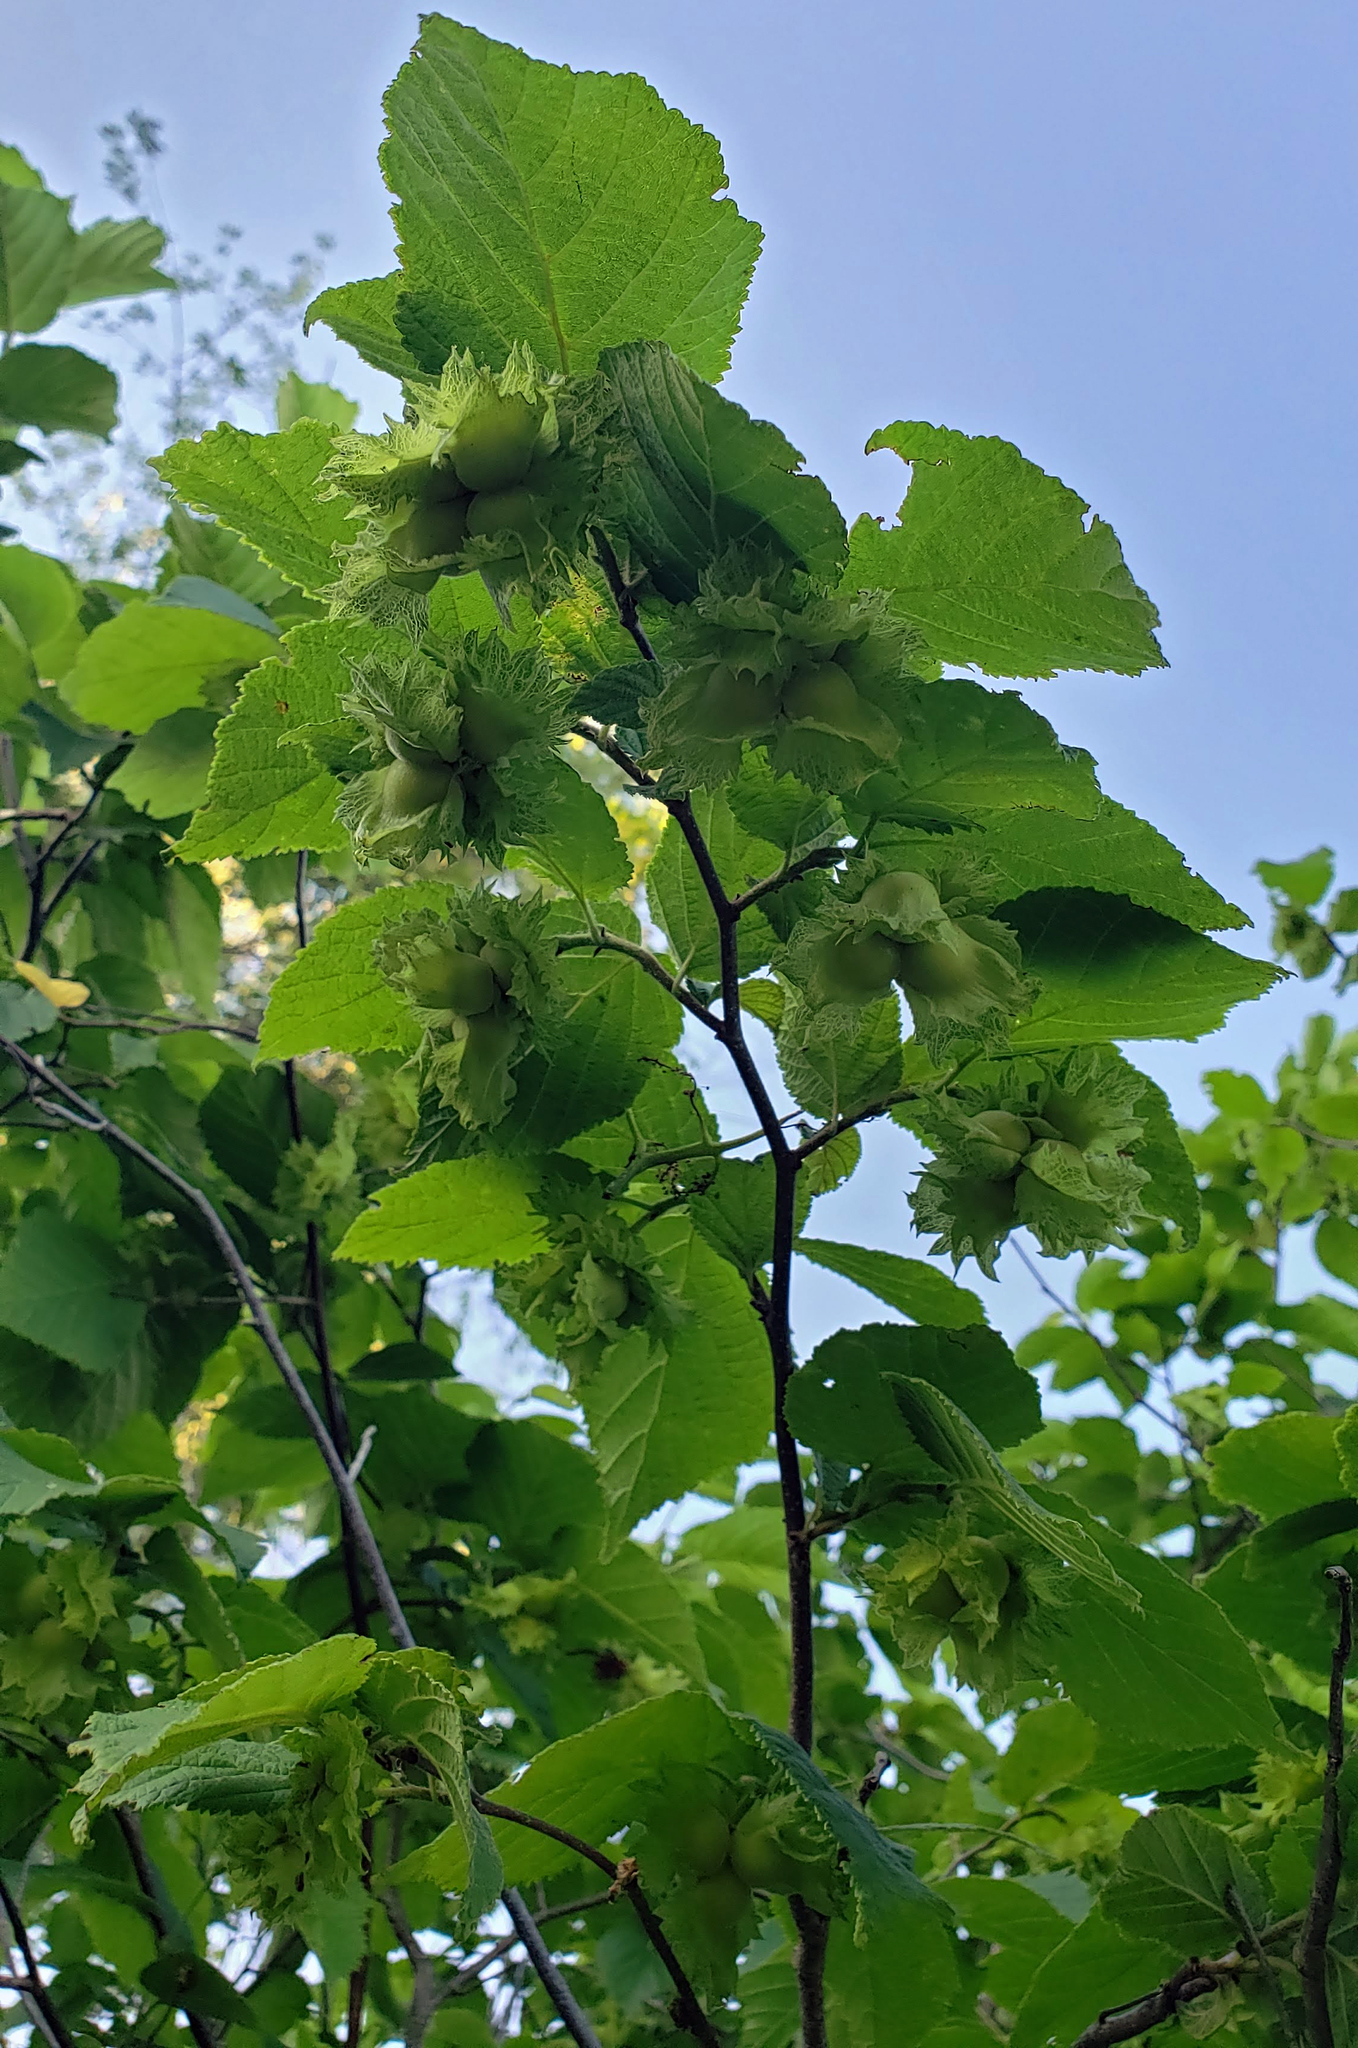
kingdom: Plantae
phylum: Tracheophyta
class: Magnoliopsida
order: Fagales
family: Betulaceae
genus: Corylus
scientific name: Corylus americana
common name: American hazel
